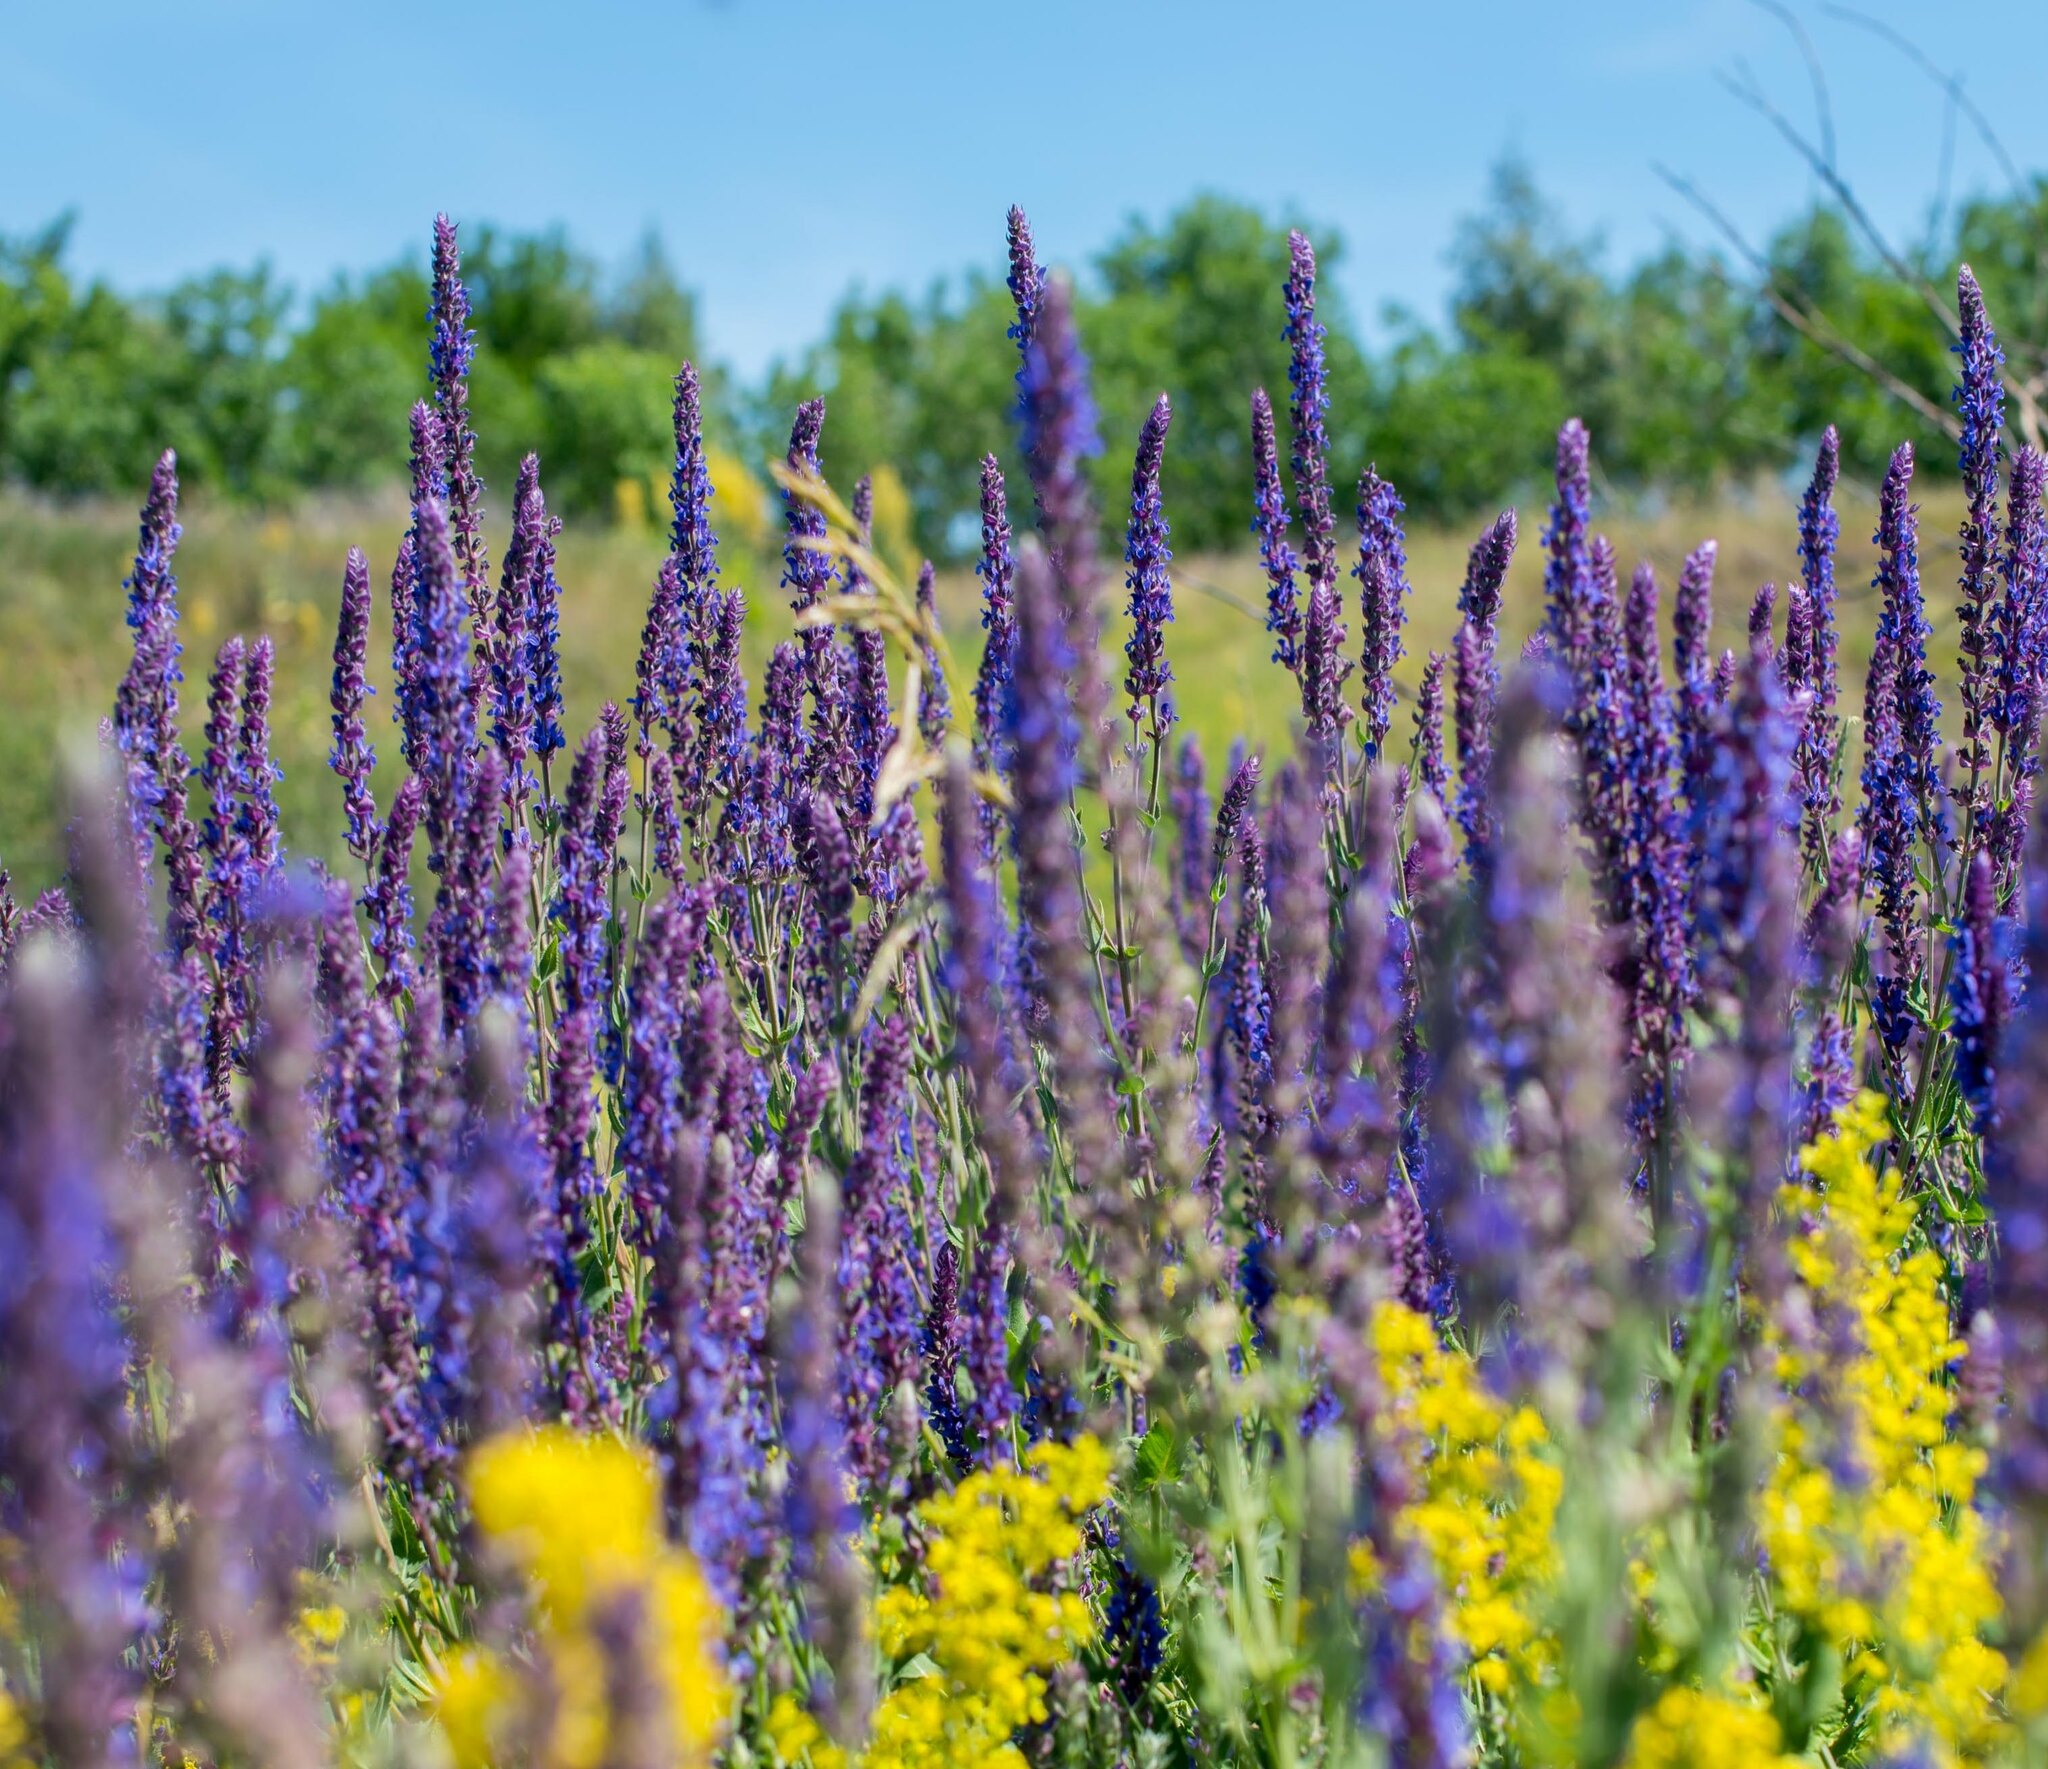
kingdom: Plantae
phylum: Tracheophyta
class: Magnoliopsida
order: Lamiales
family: Lamiaceae
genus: Salvia
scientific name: Salvia nemorosa
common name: Balkan clary
